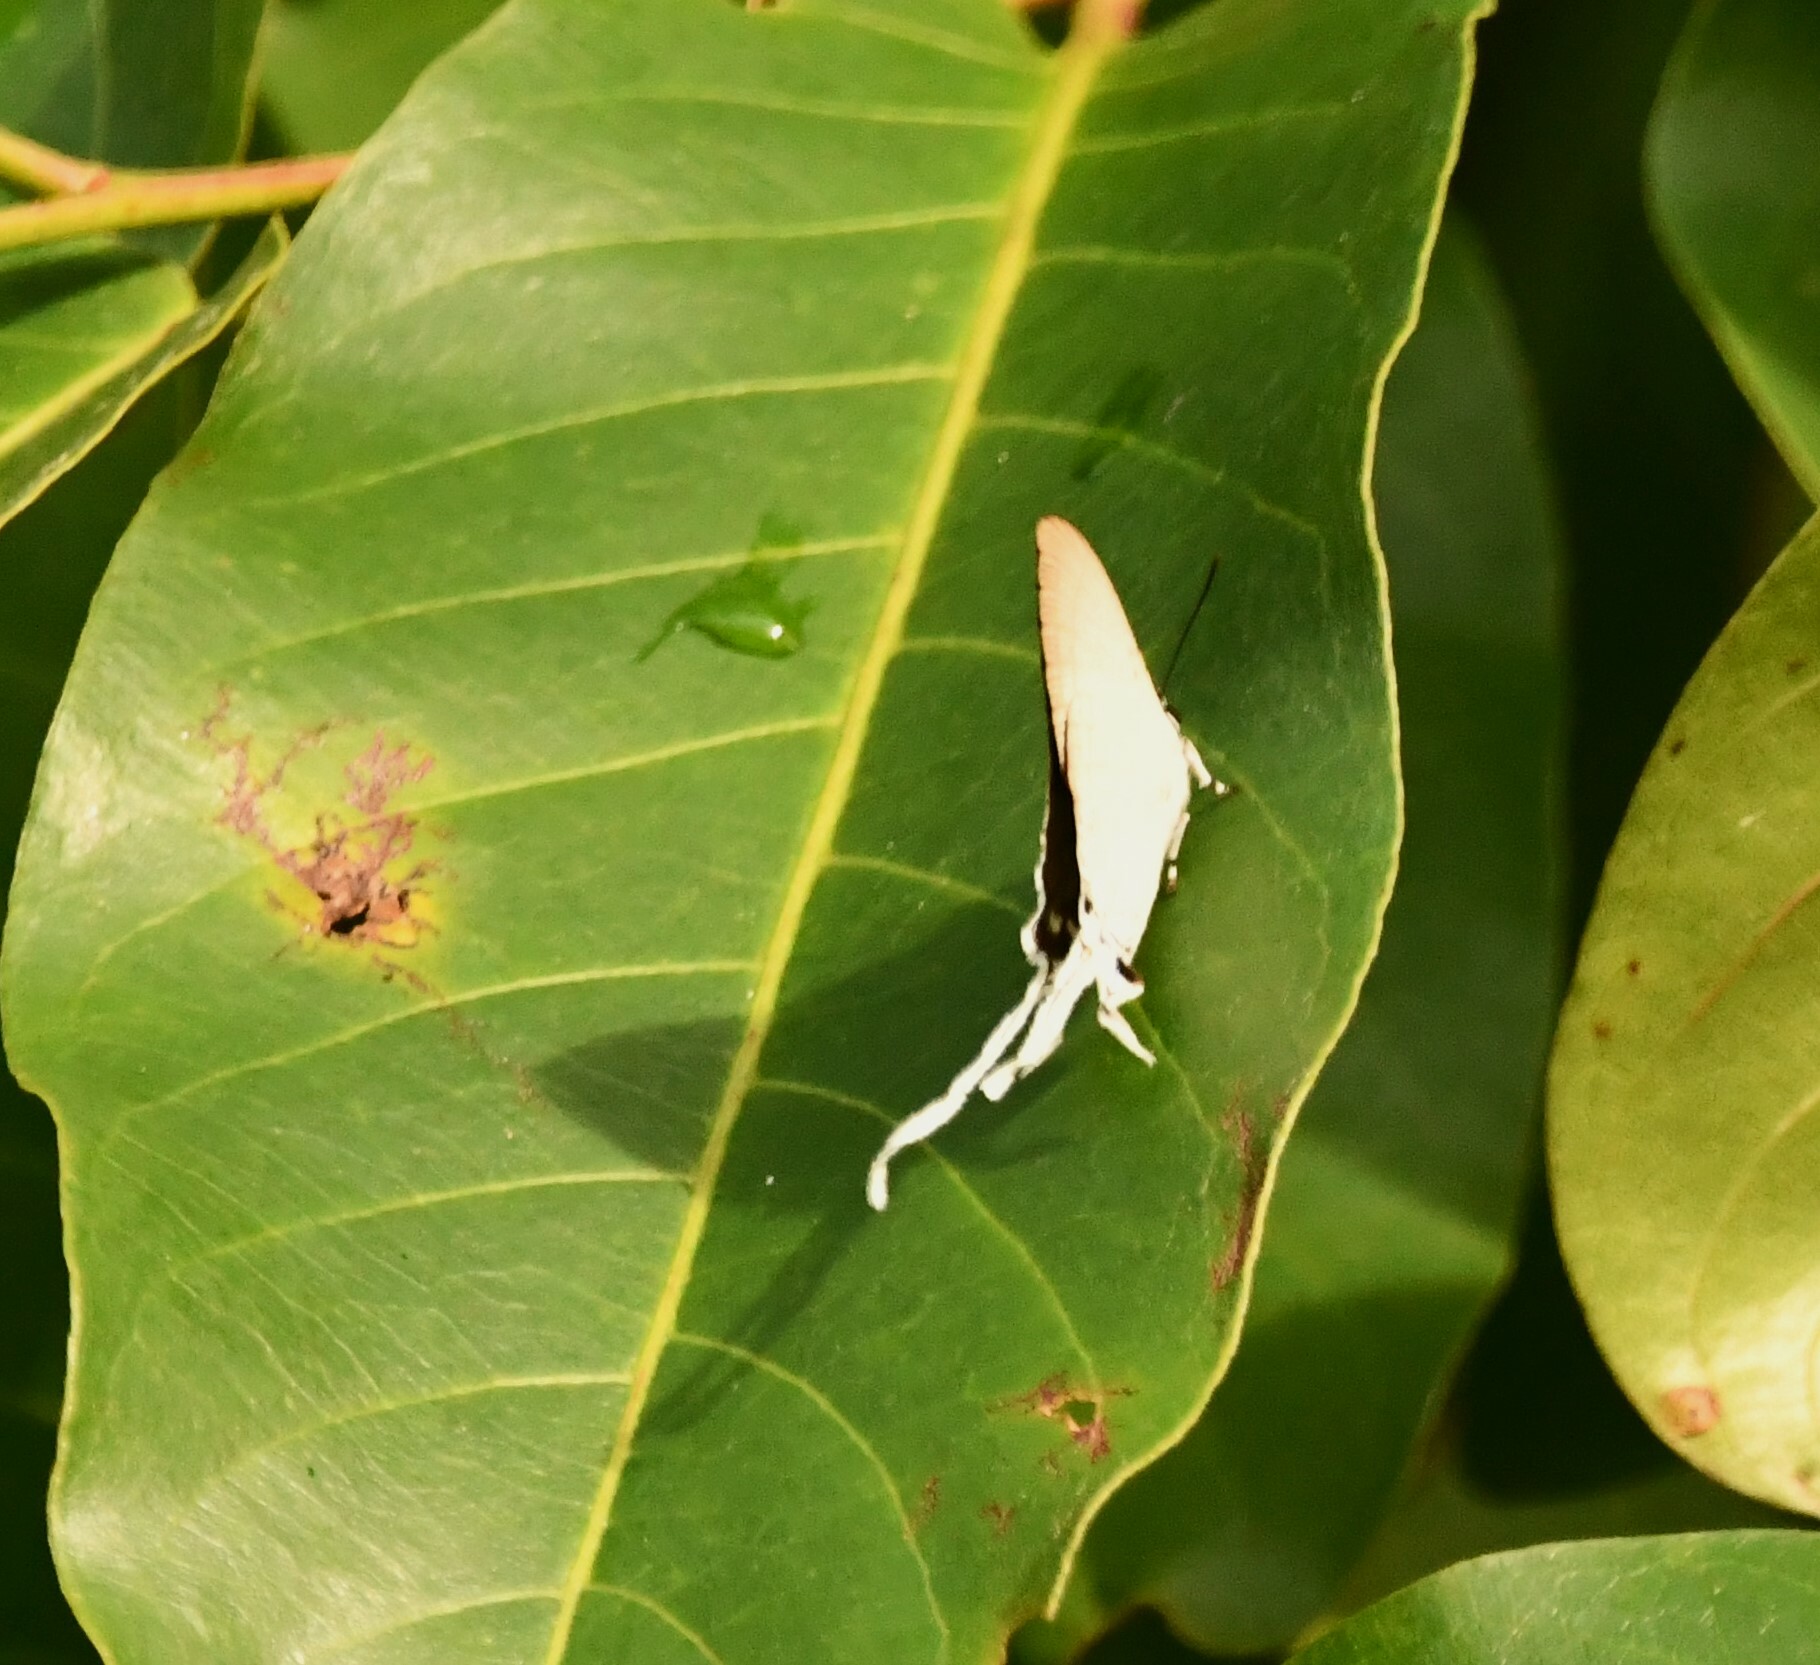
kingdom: Animalia
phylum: Arthropoda
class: Insecta
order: Lepidoptera
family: Lycaenidae
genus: Cheritra
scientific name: Cheritra freja
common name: Common imperial
